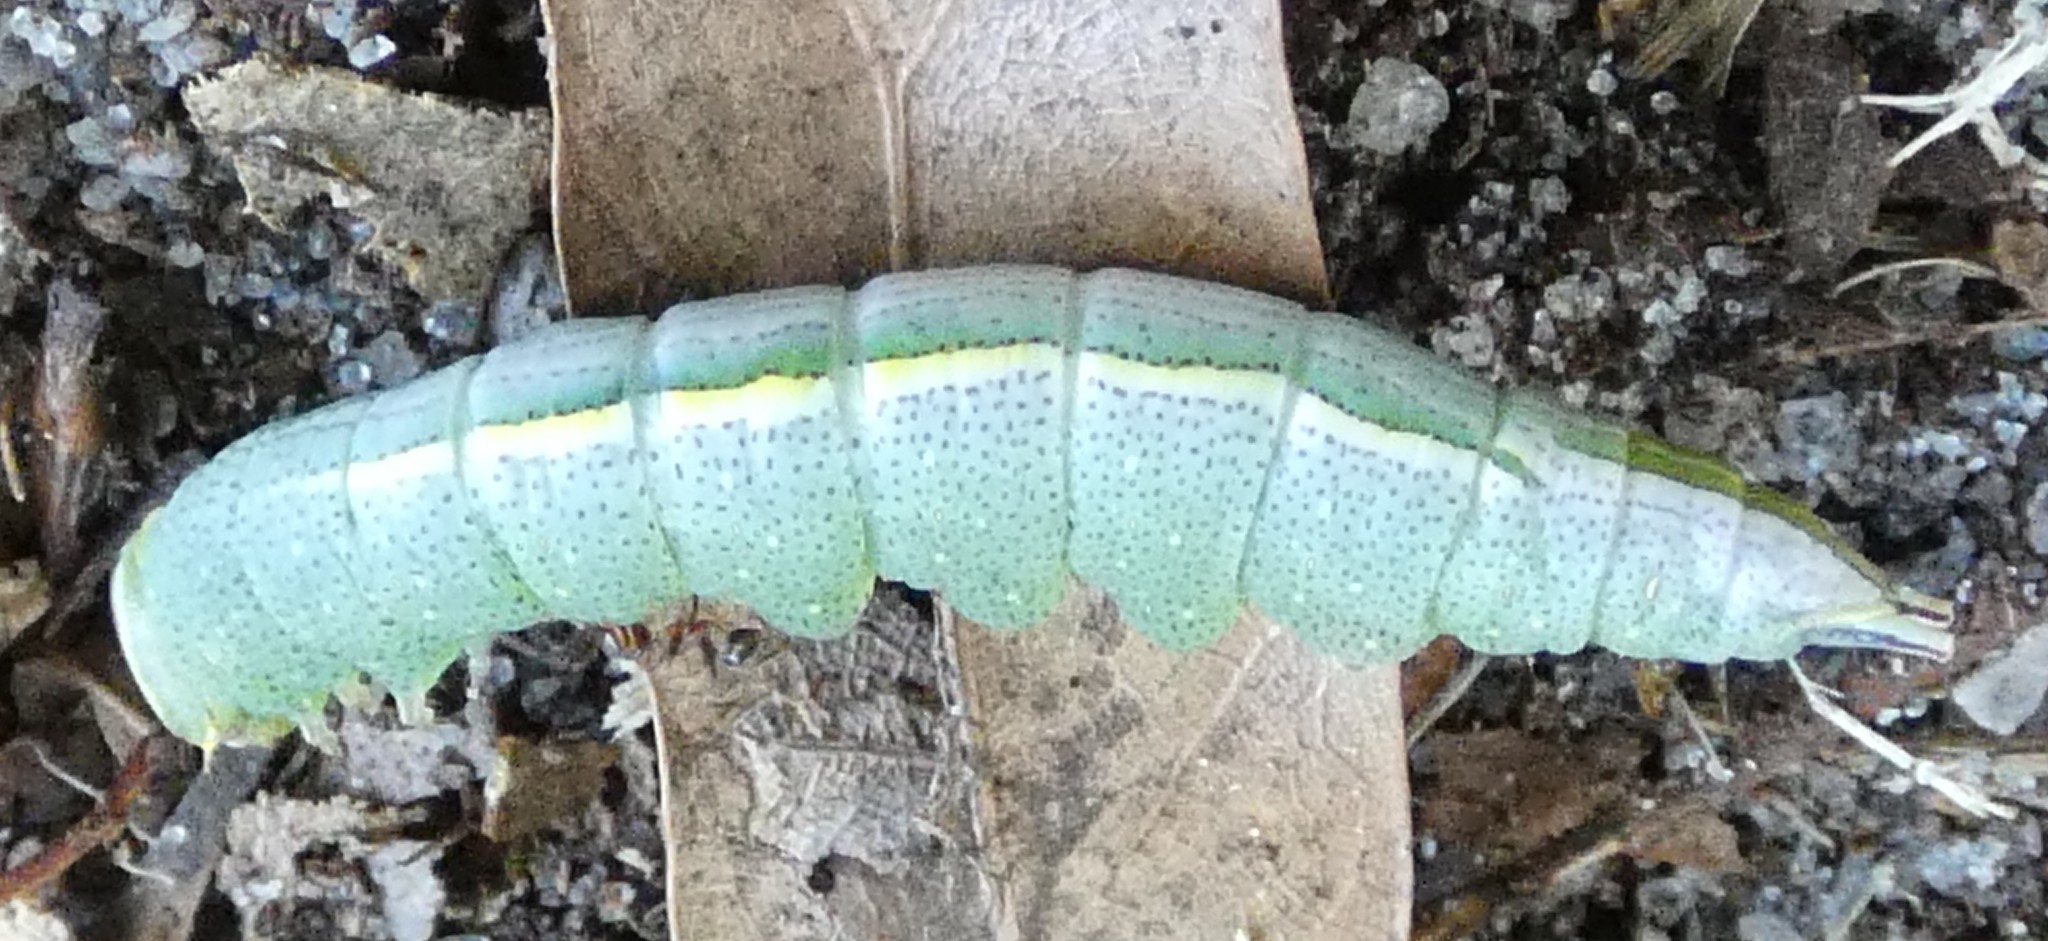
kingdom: Animalia
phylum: Arthropoda
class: Insecta
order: Lepidoptera
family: Notodontidae
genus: Disphragis
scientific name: Disphragis Cecrita guttivitta
